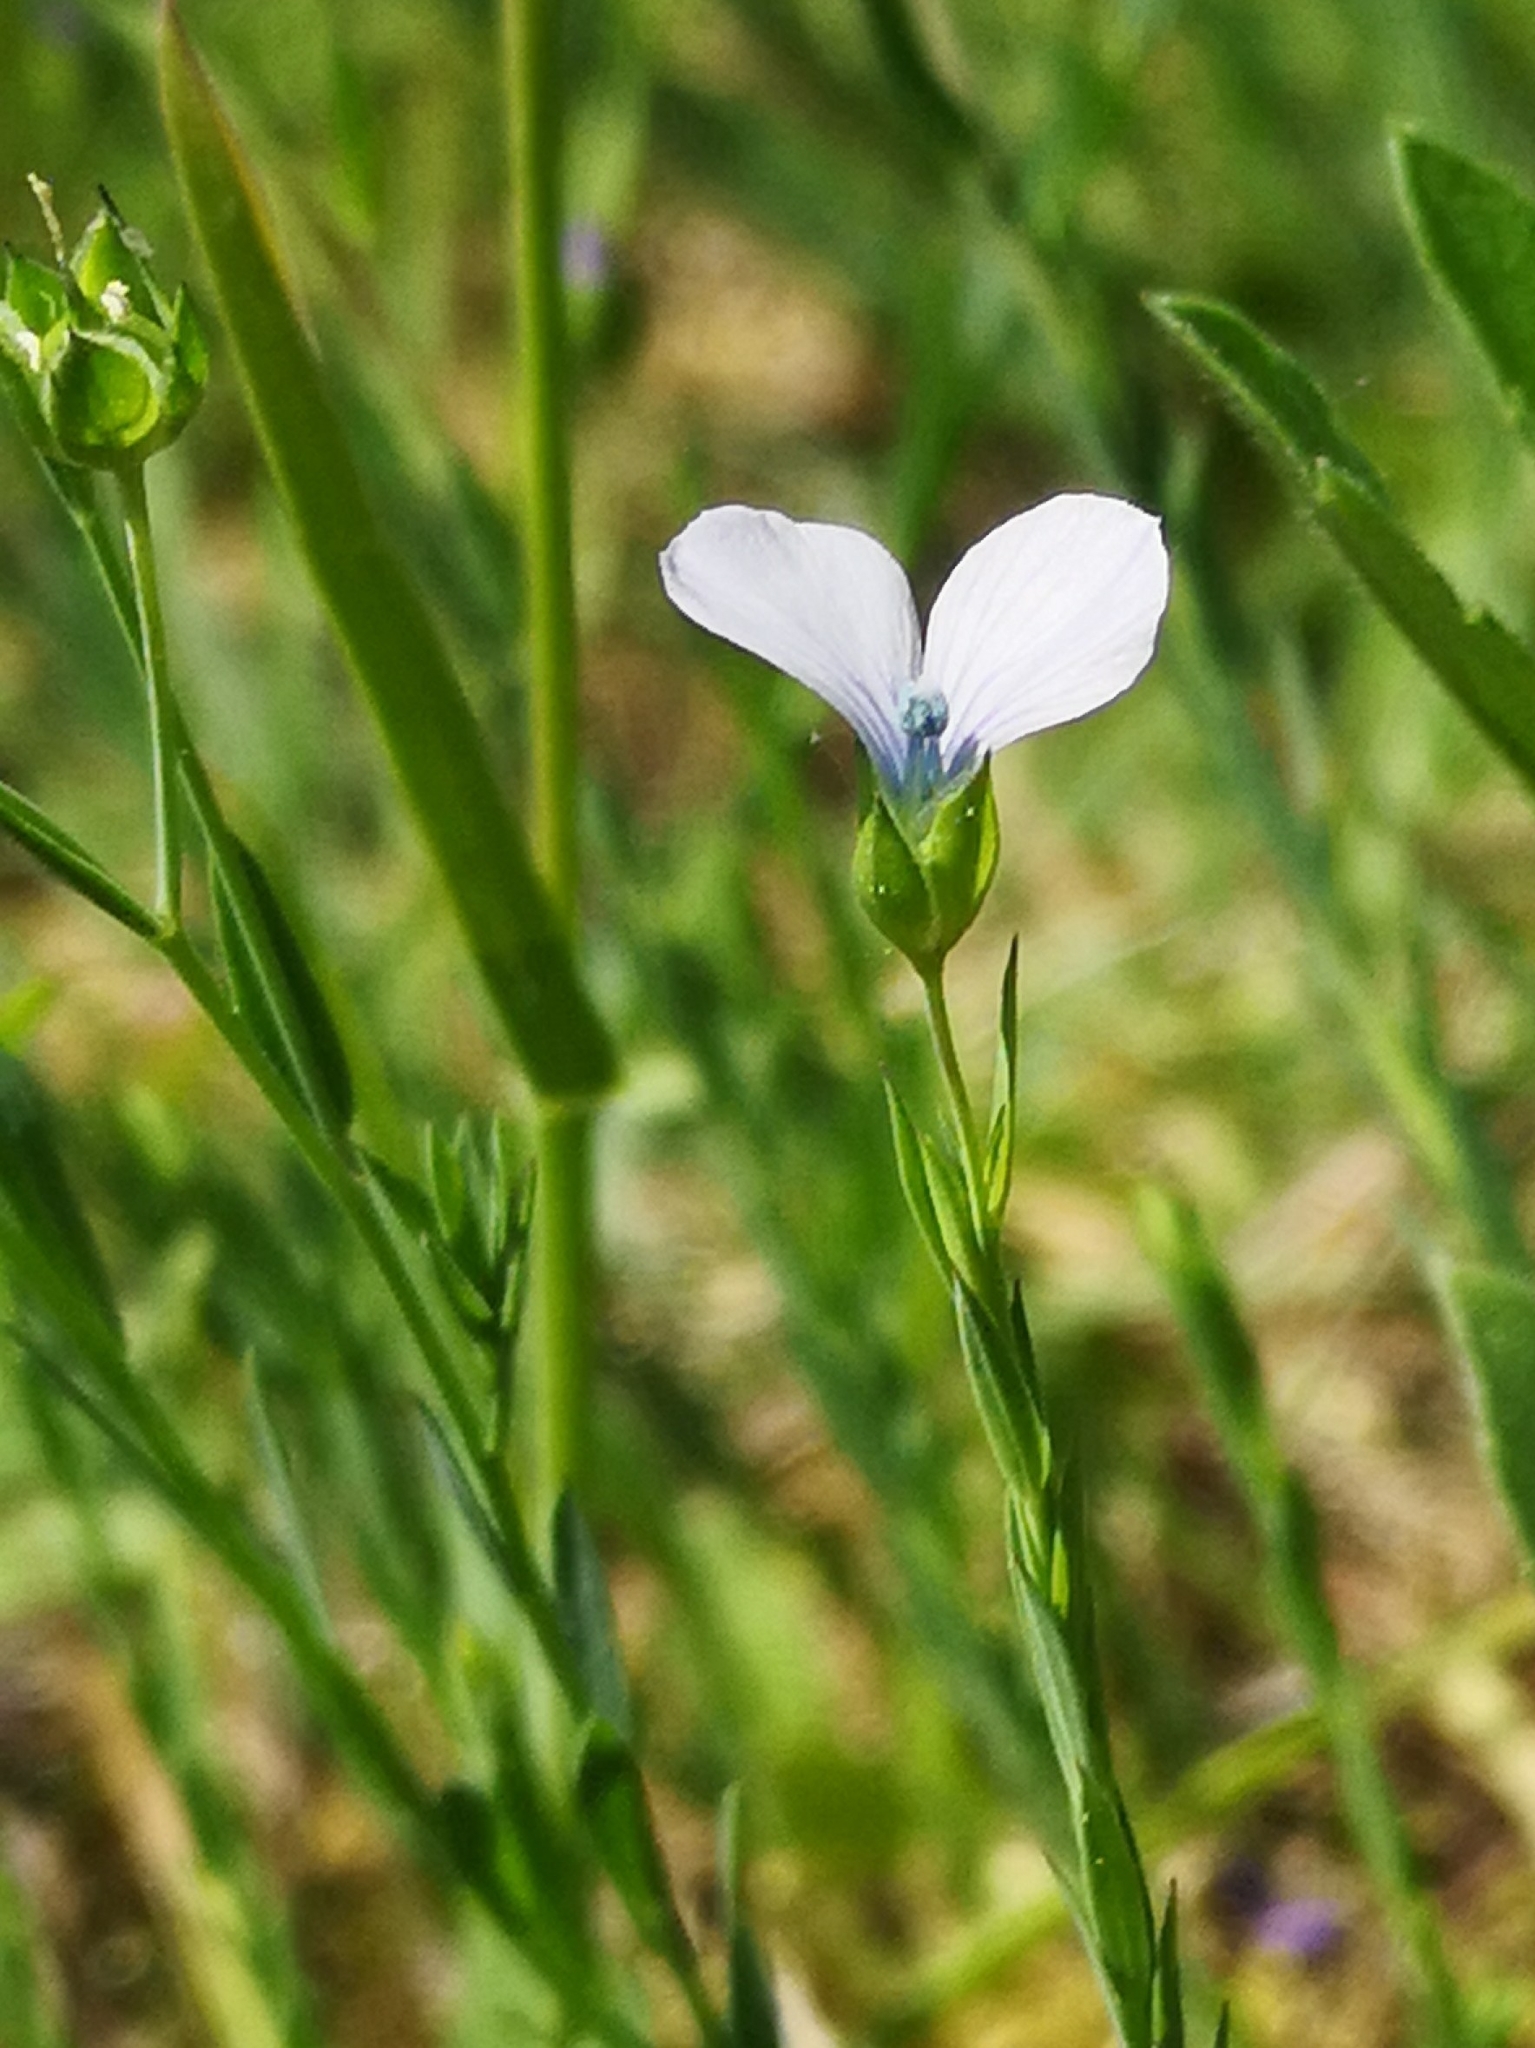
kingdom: Plantae
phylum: Tracheophyta
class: Magnoliopsida
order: Malpighiales
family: Linaceae
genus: Linum
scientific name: Linum bienne
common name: Pale flax
